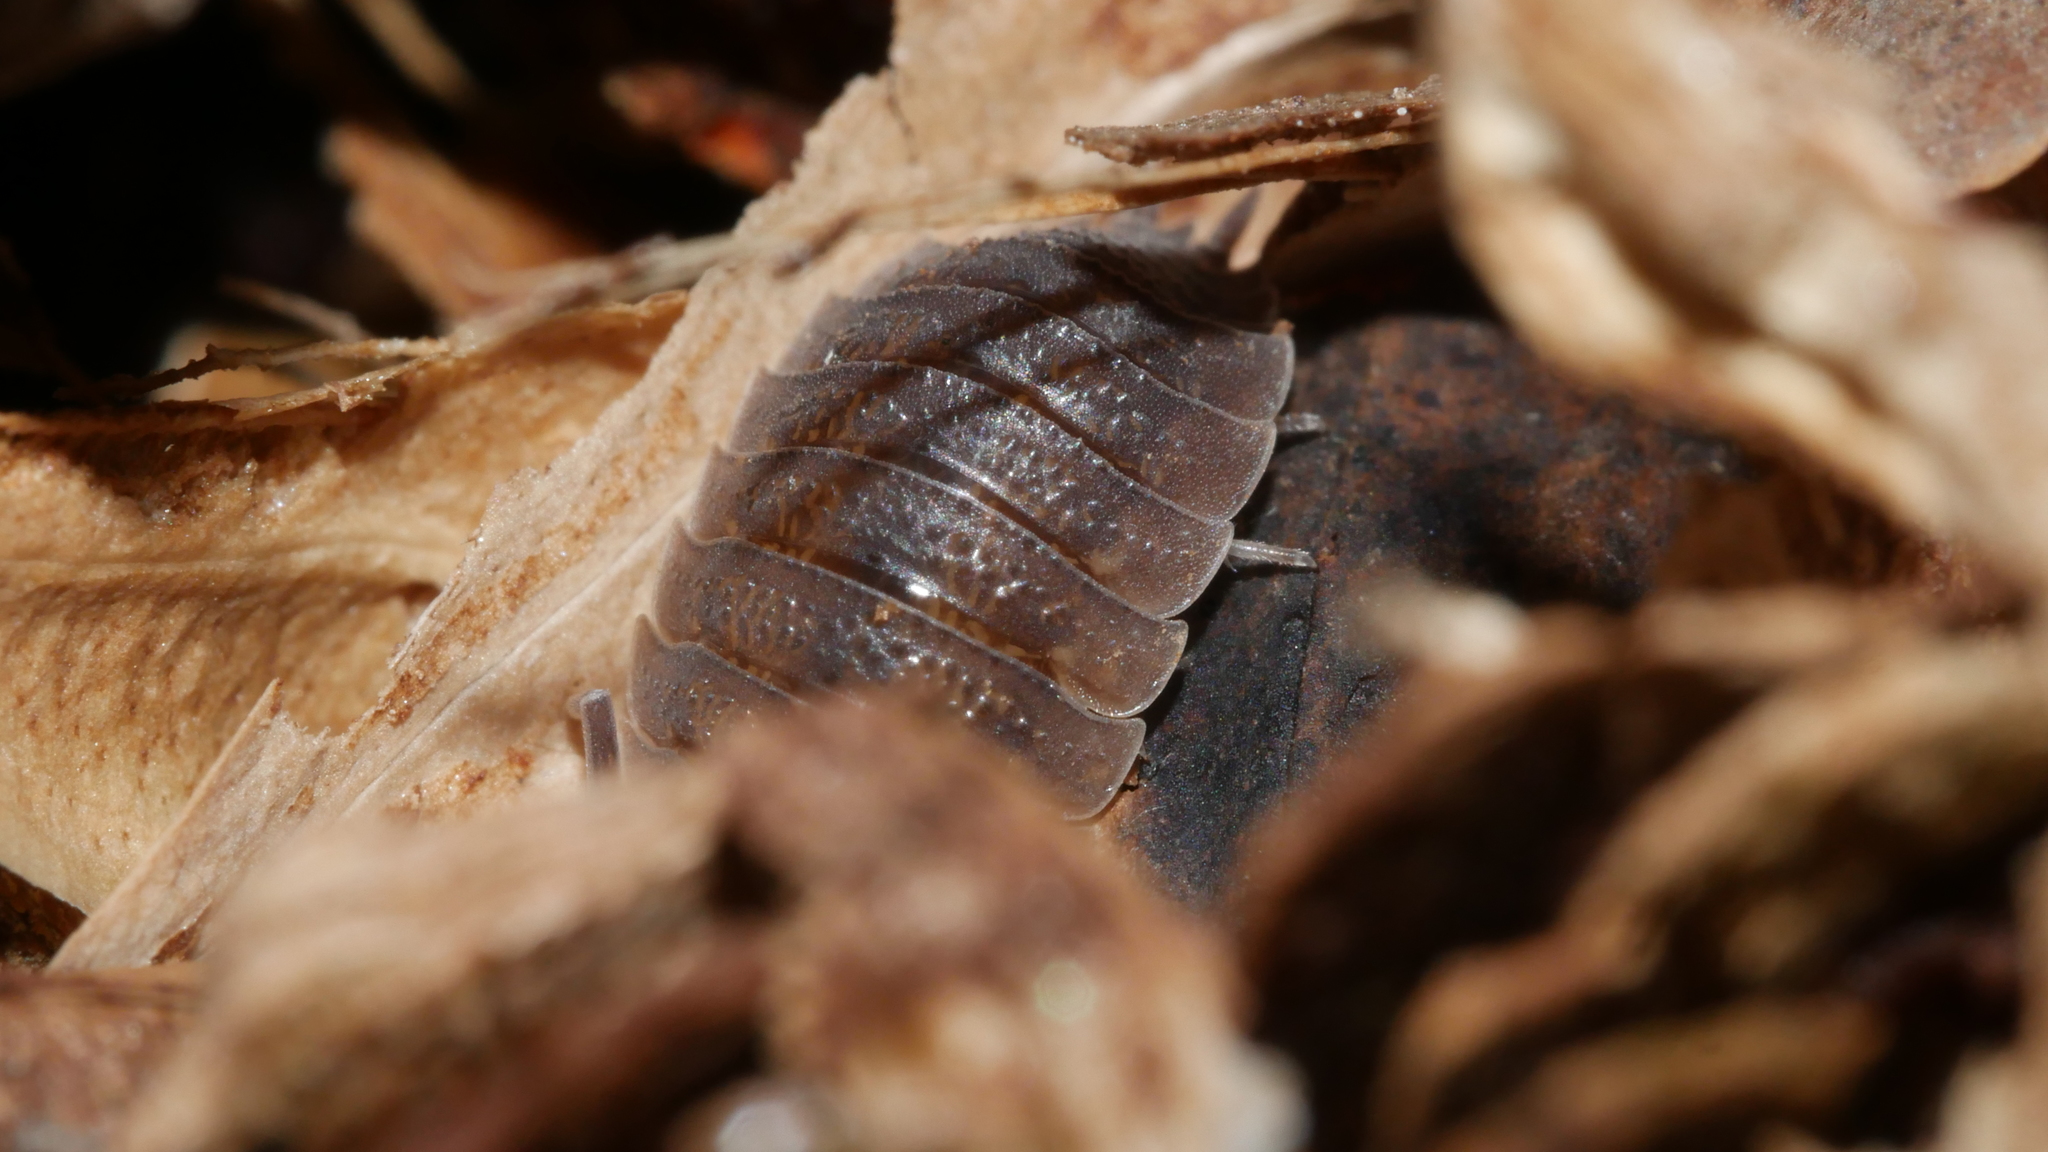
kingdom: Animalia
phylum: Arthropoda
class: Malacostraca
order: Isopoda
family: Porcellionidae
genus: Porcellio
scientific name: Porcellio scaber
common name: Common rough woodlouse
